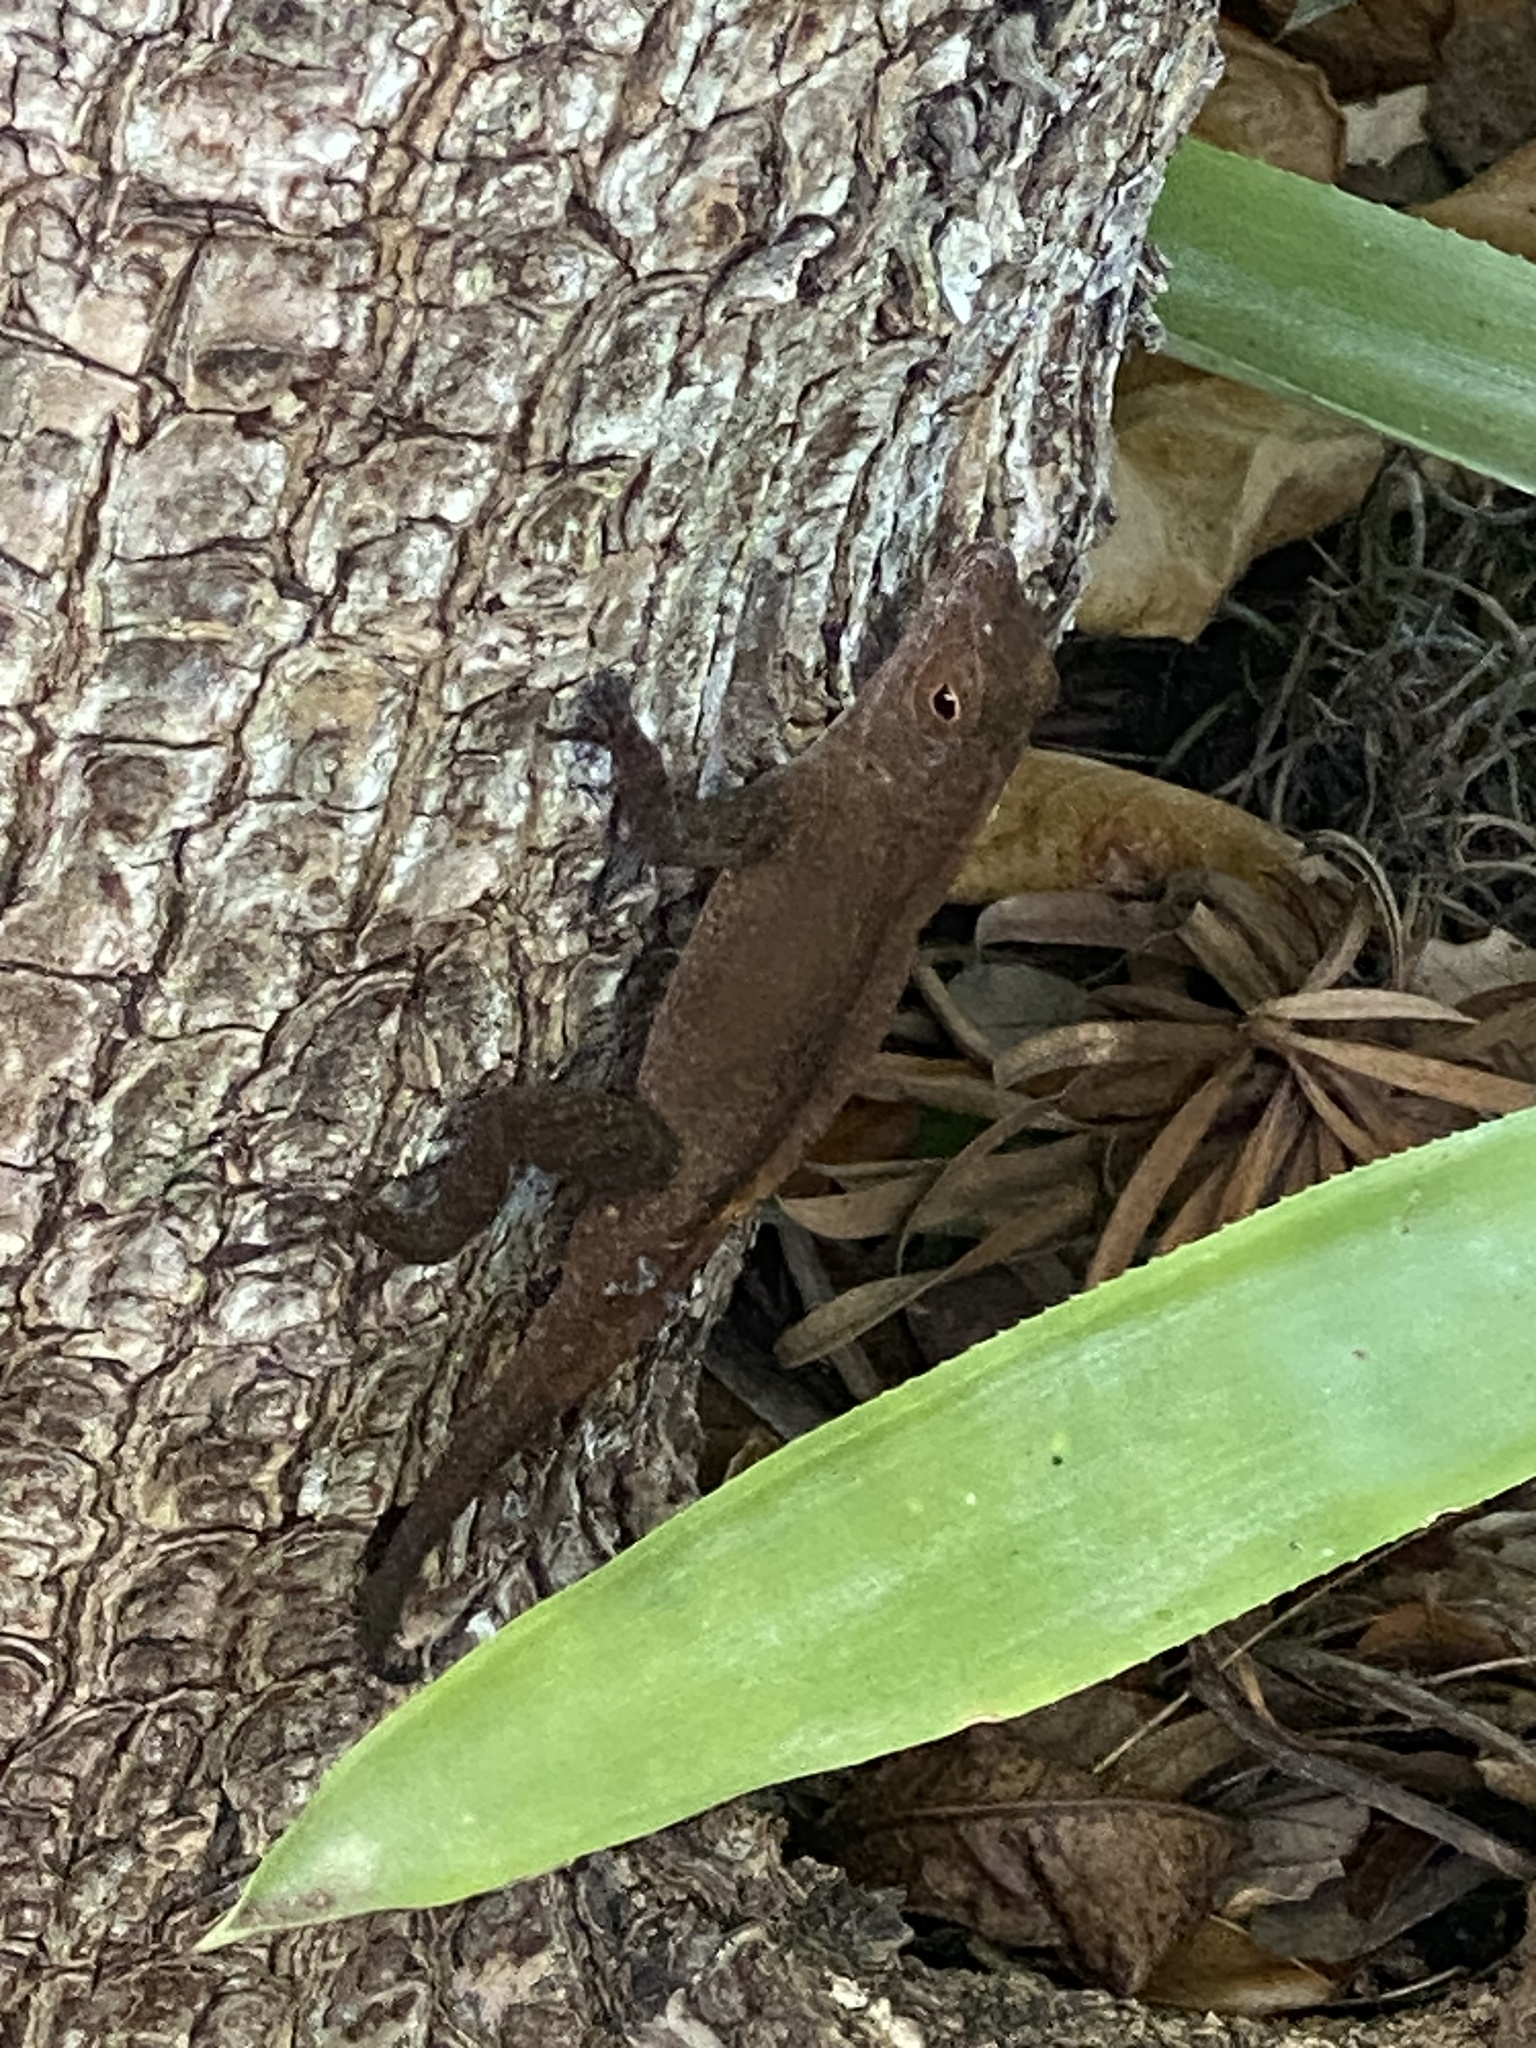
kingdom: Animalia
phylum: Chordata
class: Squamata
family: Dactyloidae
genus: Anolis
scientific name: Anolis cristatellus
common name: Crested anole
